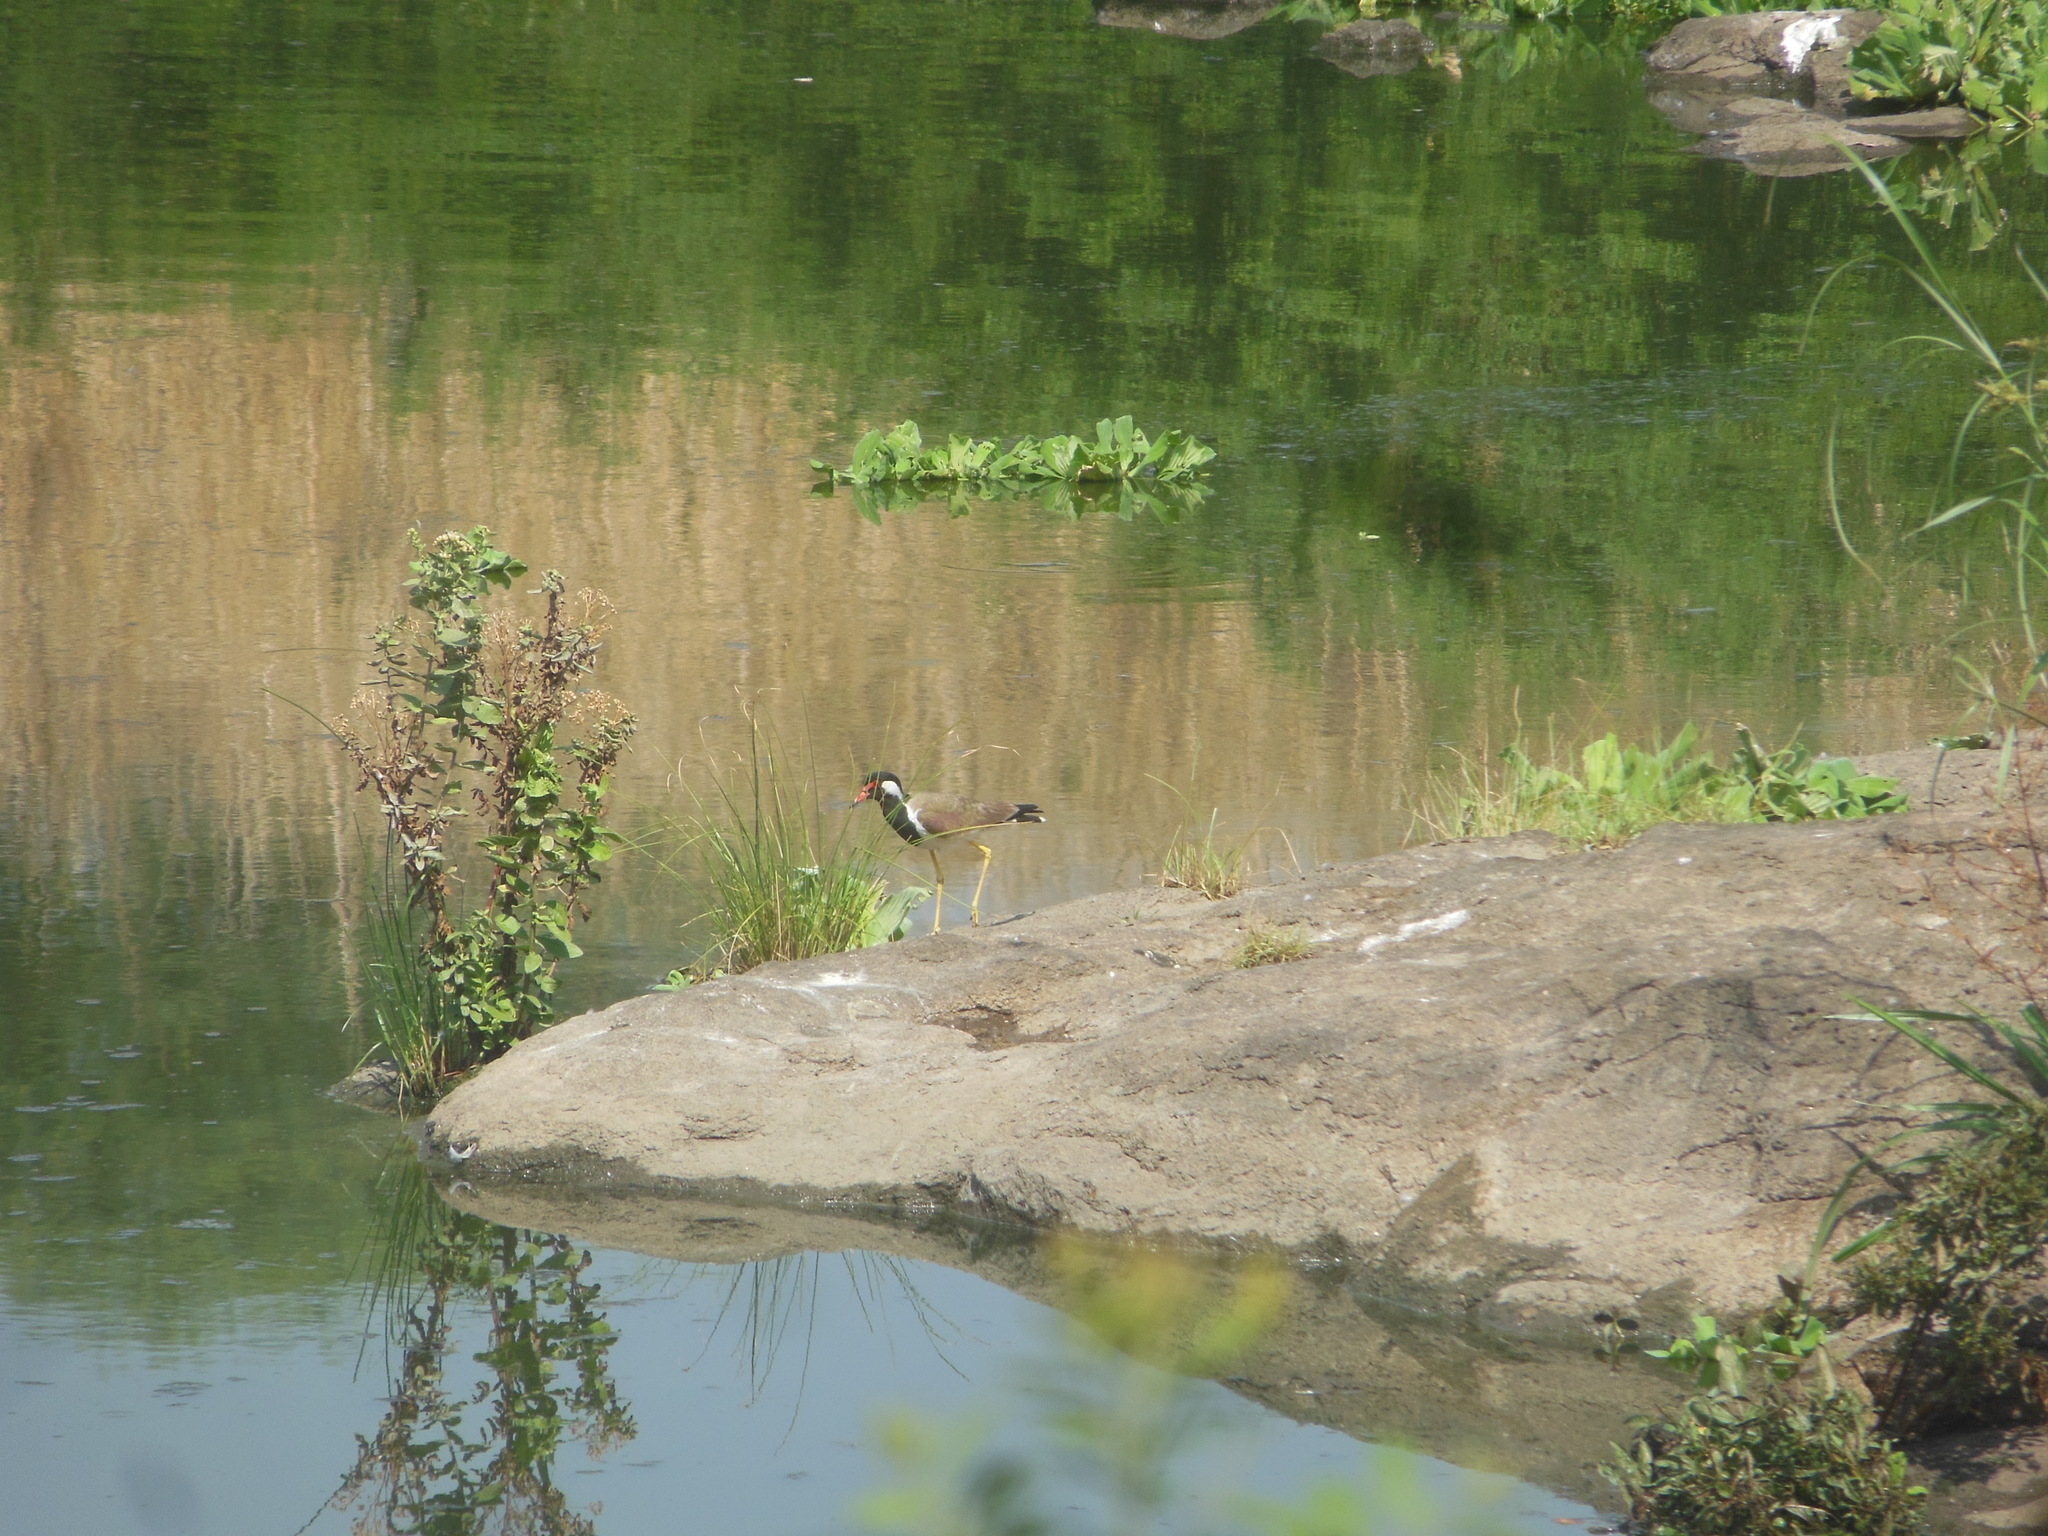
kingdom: Animalia
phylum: Chordata
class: Aves
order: Charadriiformes
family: Charadriidae
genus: Vanellus
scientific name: Vanellus indicus
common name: Red-wattled lapwing
